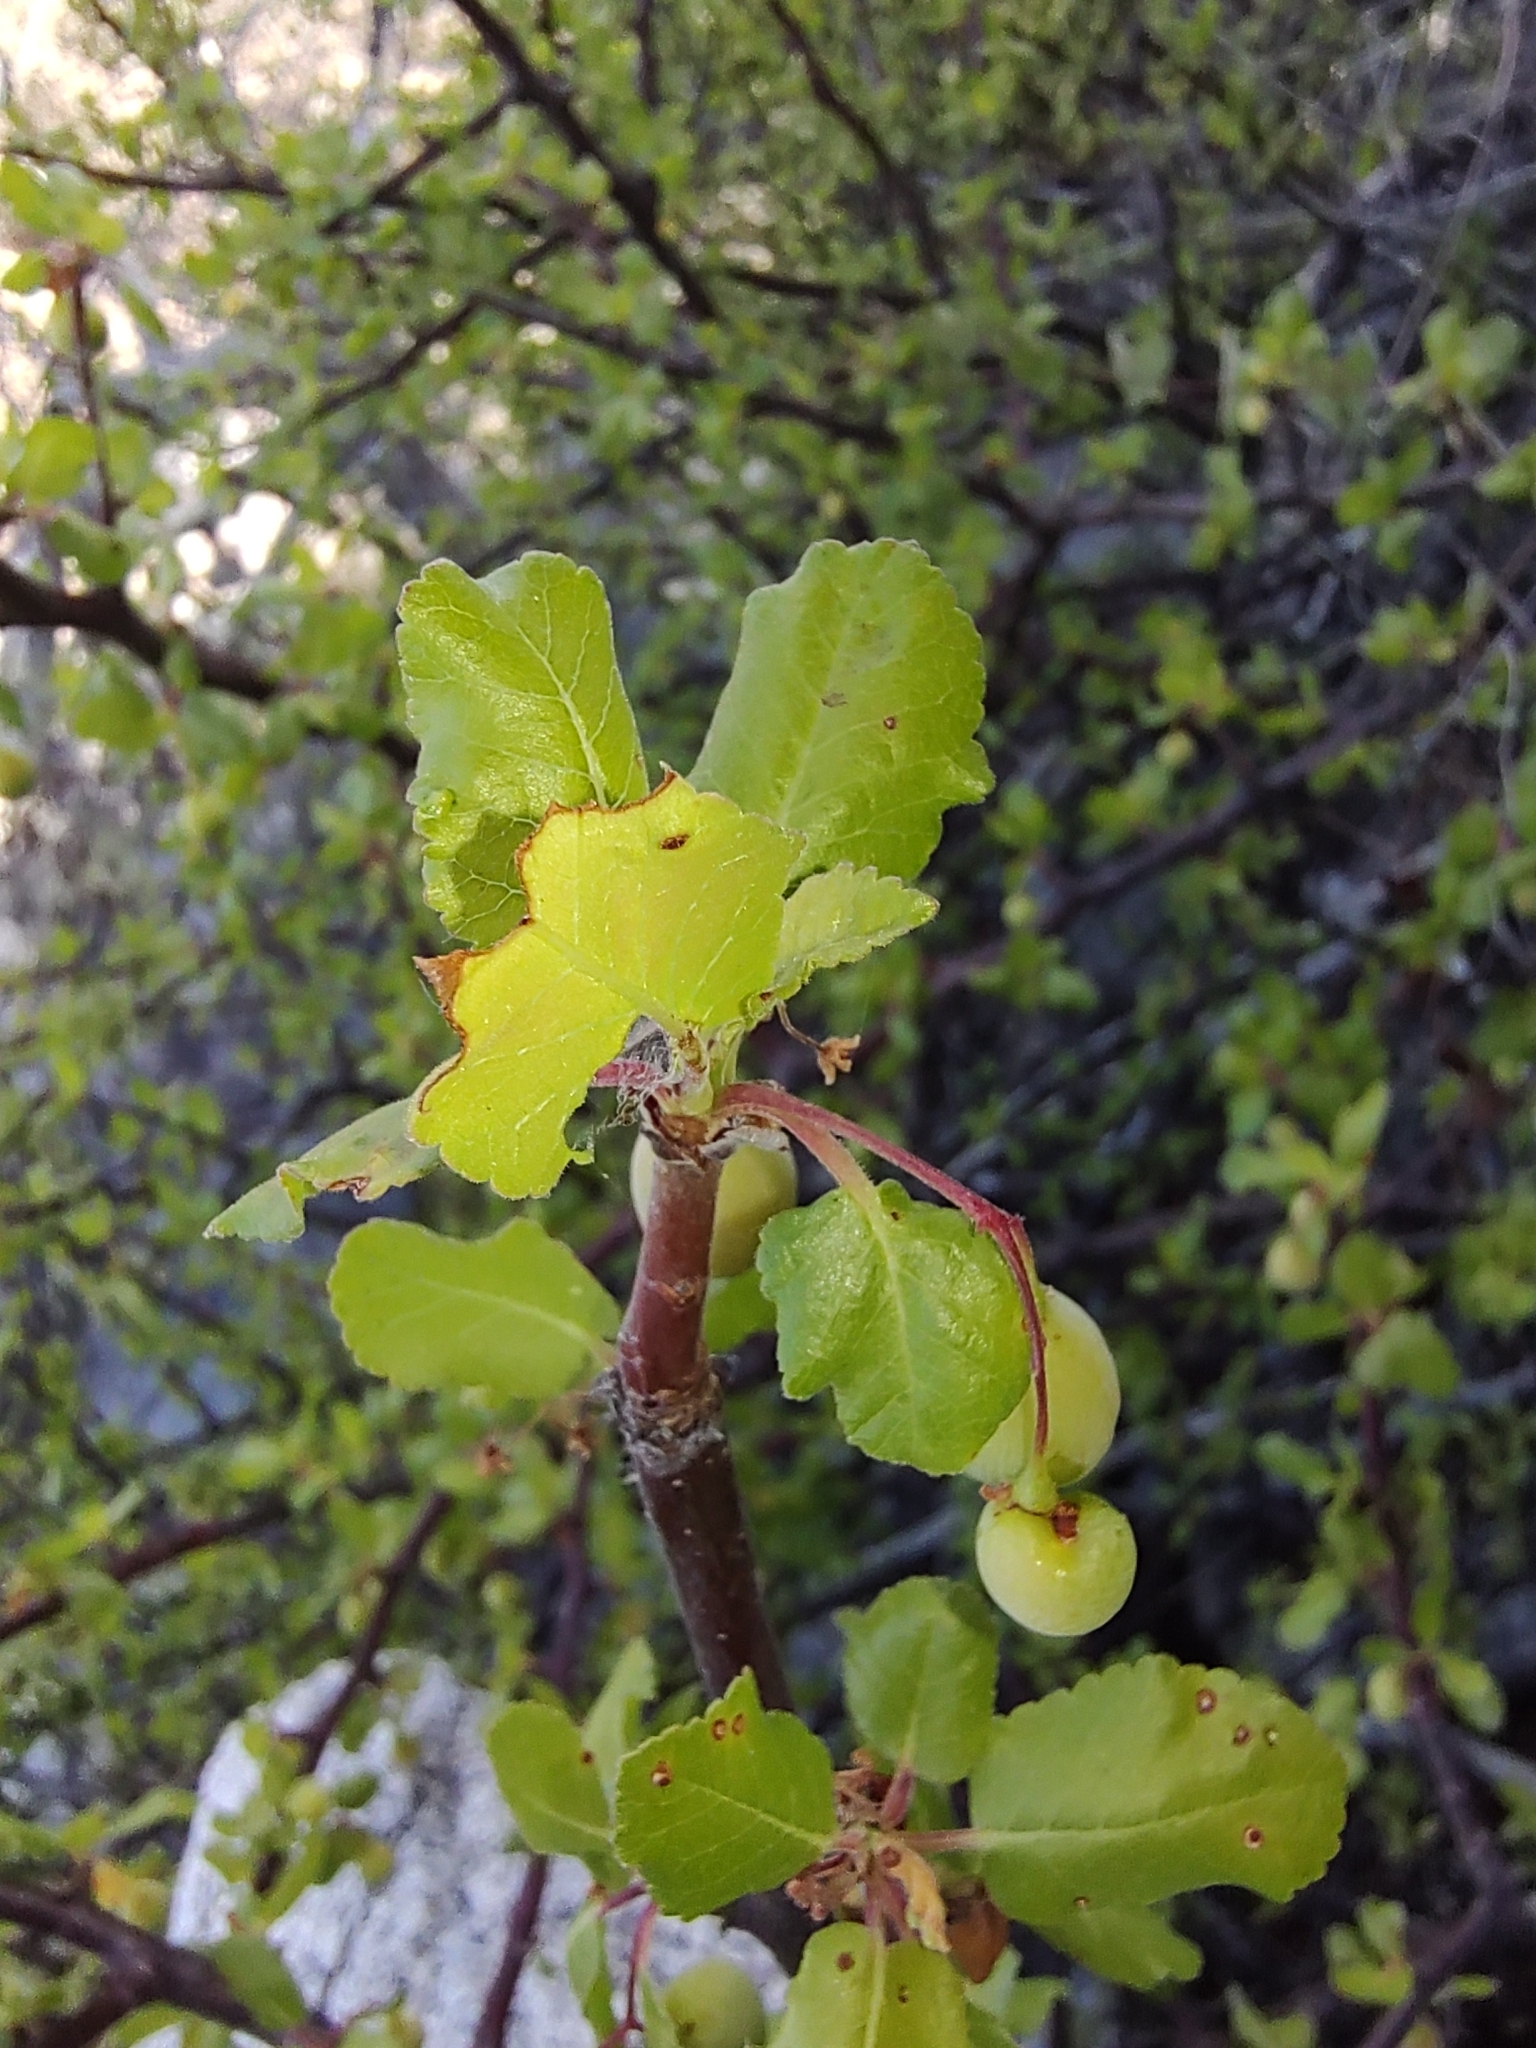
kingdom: Plantae
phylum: Tracheophyta
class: Magnoliopsida
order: Sapindales
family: Burseraceae
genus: Bursera
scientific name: Bursera rupicola
